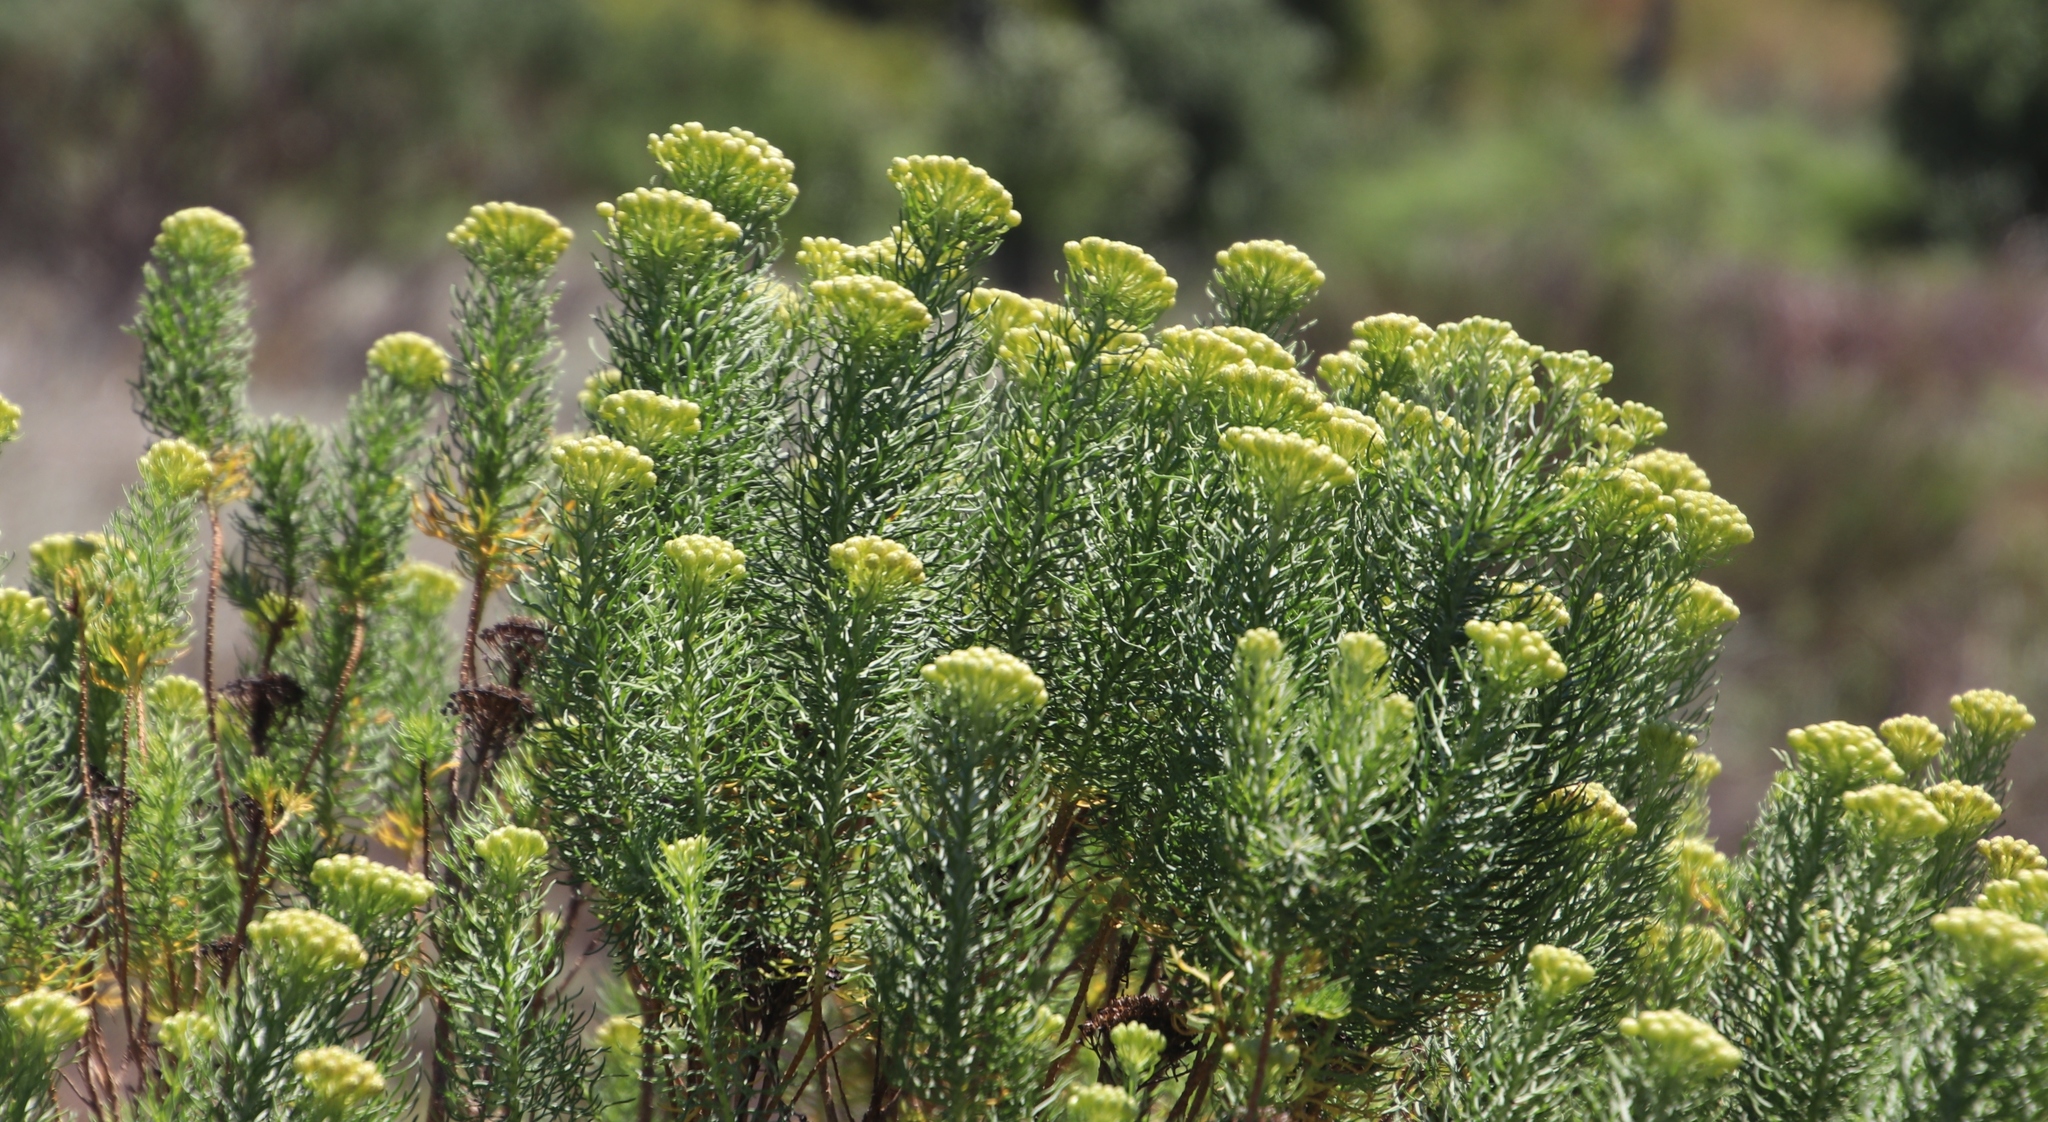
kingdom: Plantae
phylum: Tracheophyta
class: Magnoliopsida
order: Asterales
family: Asteraceae
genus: Athanasia
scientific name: Athanasia crithmifolia
